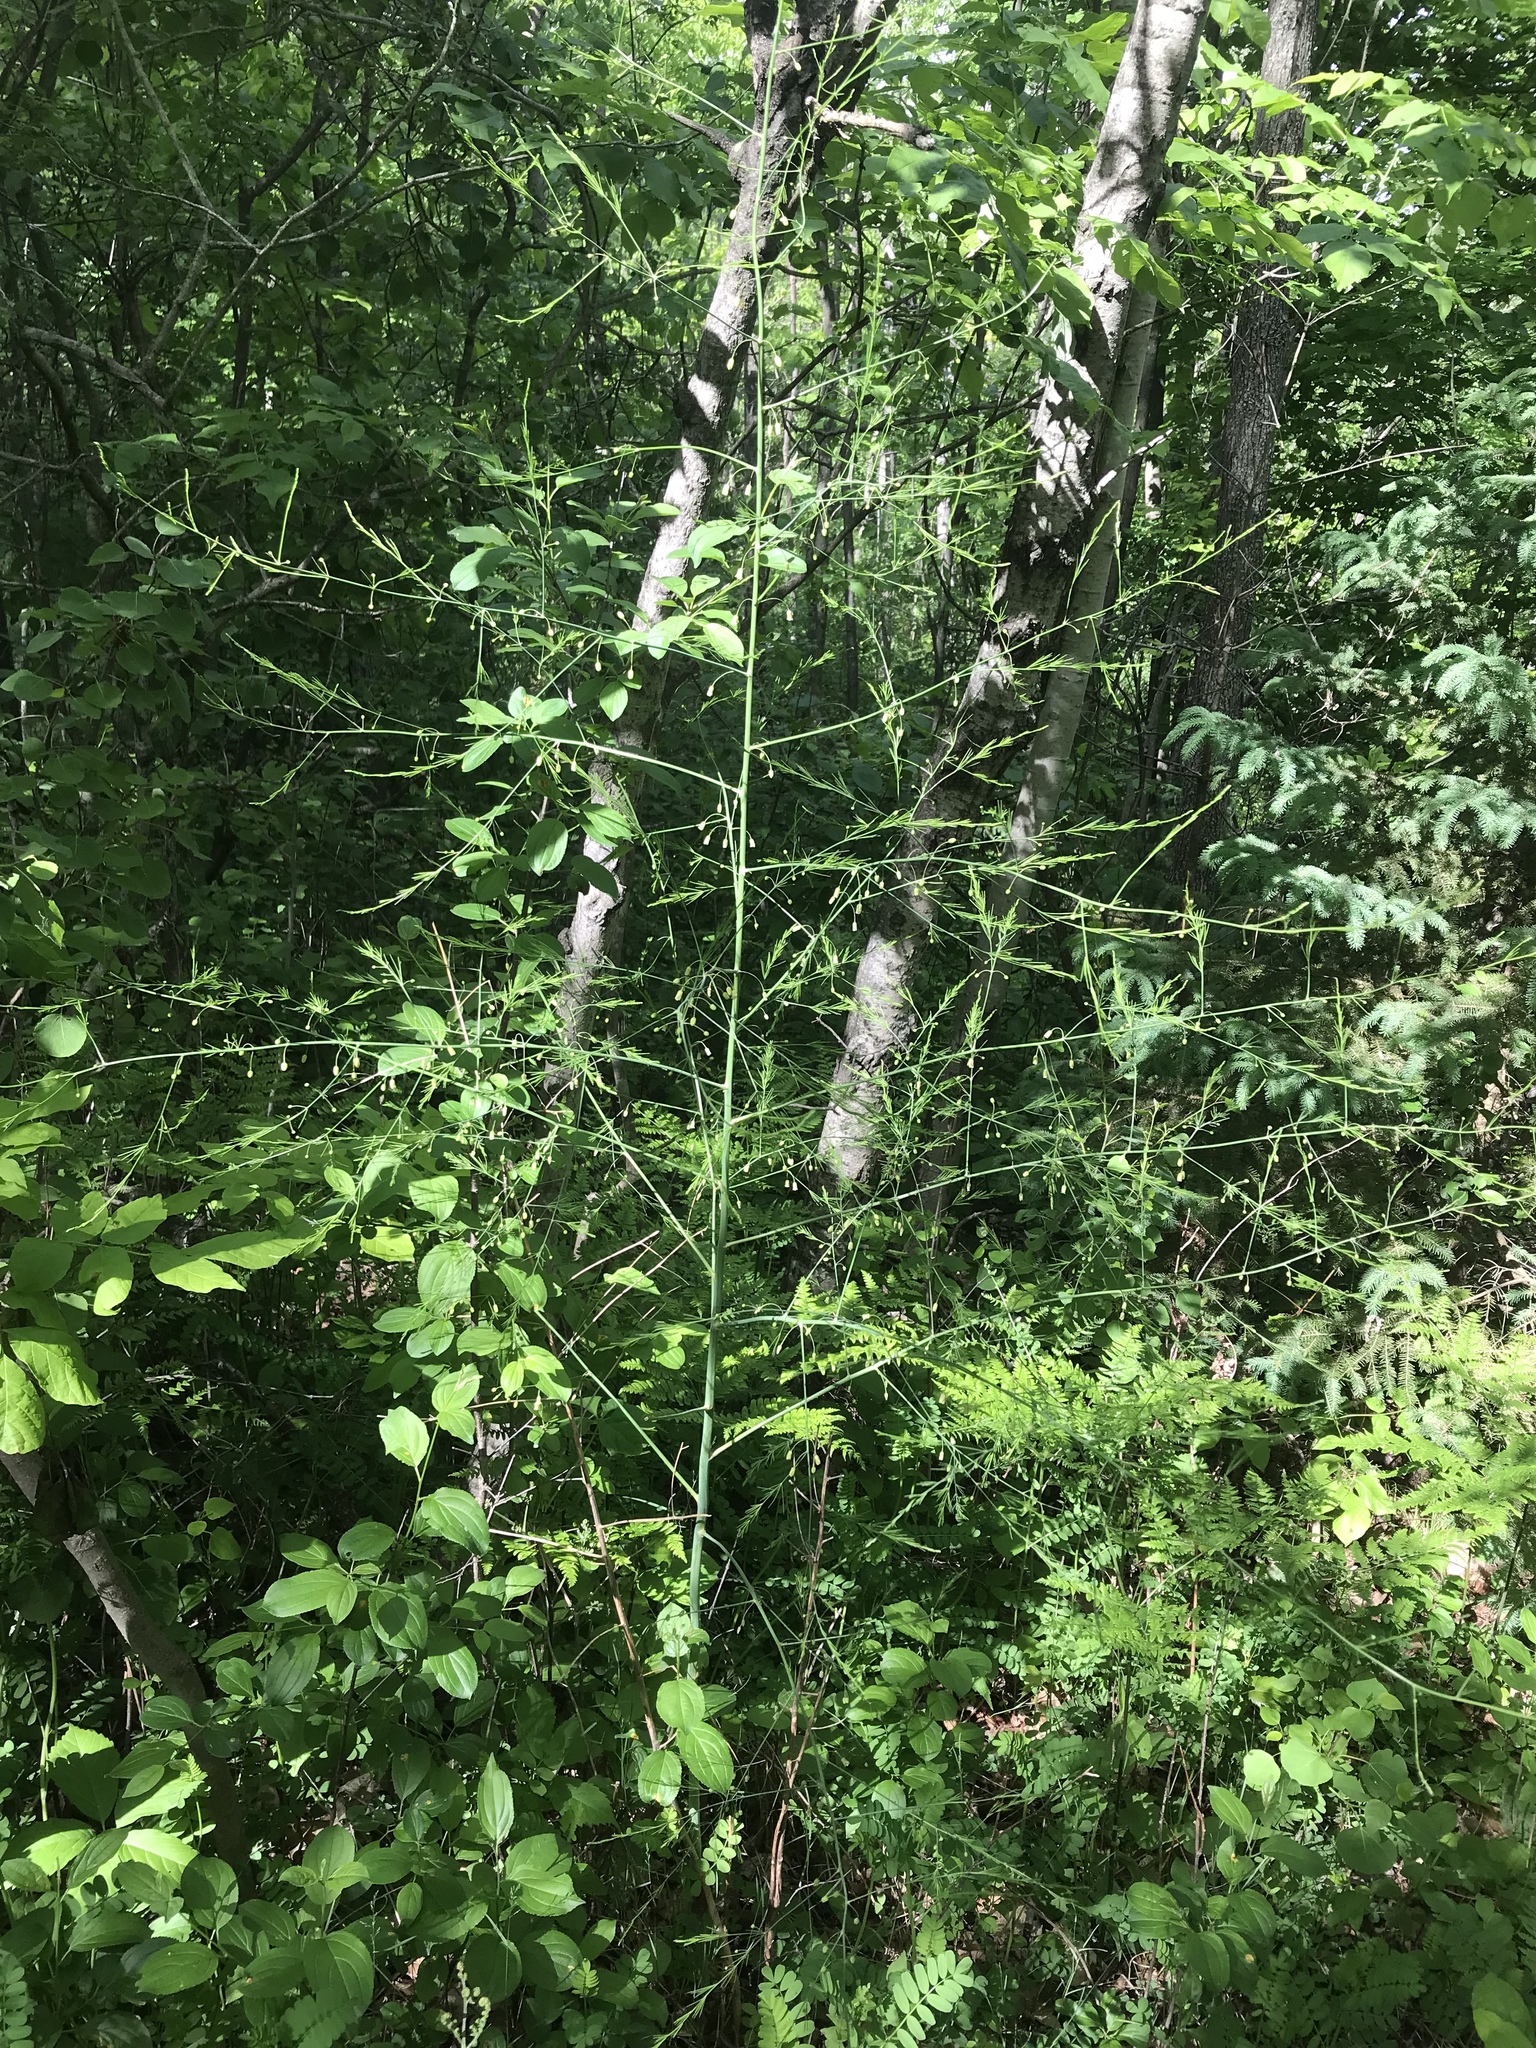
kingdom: Plantae
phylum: Tracheophyta
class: Liliopsida
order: Asparagales
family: Asparagaceae
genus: Asparagus
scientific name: Asparagus officinalis
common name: Garden asparagus
